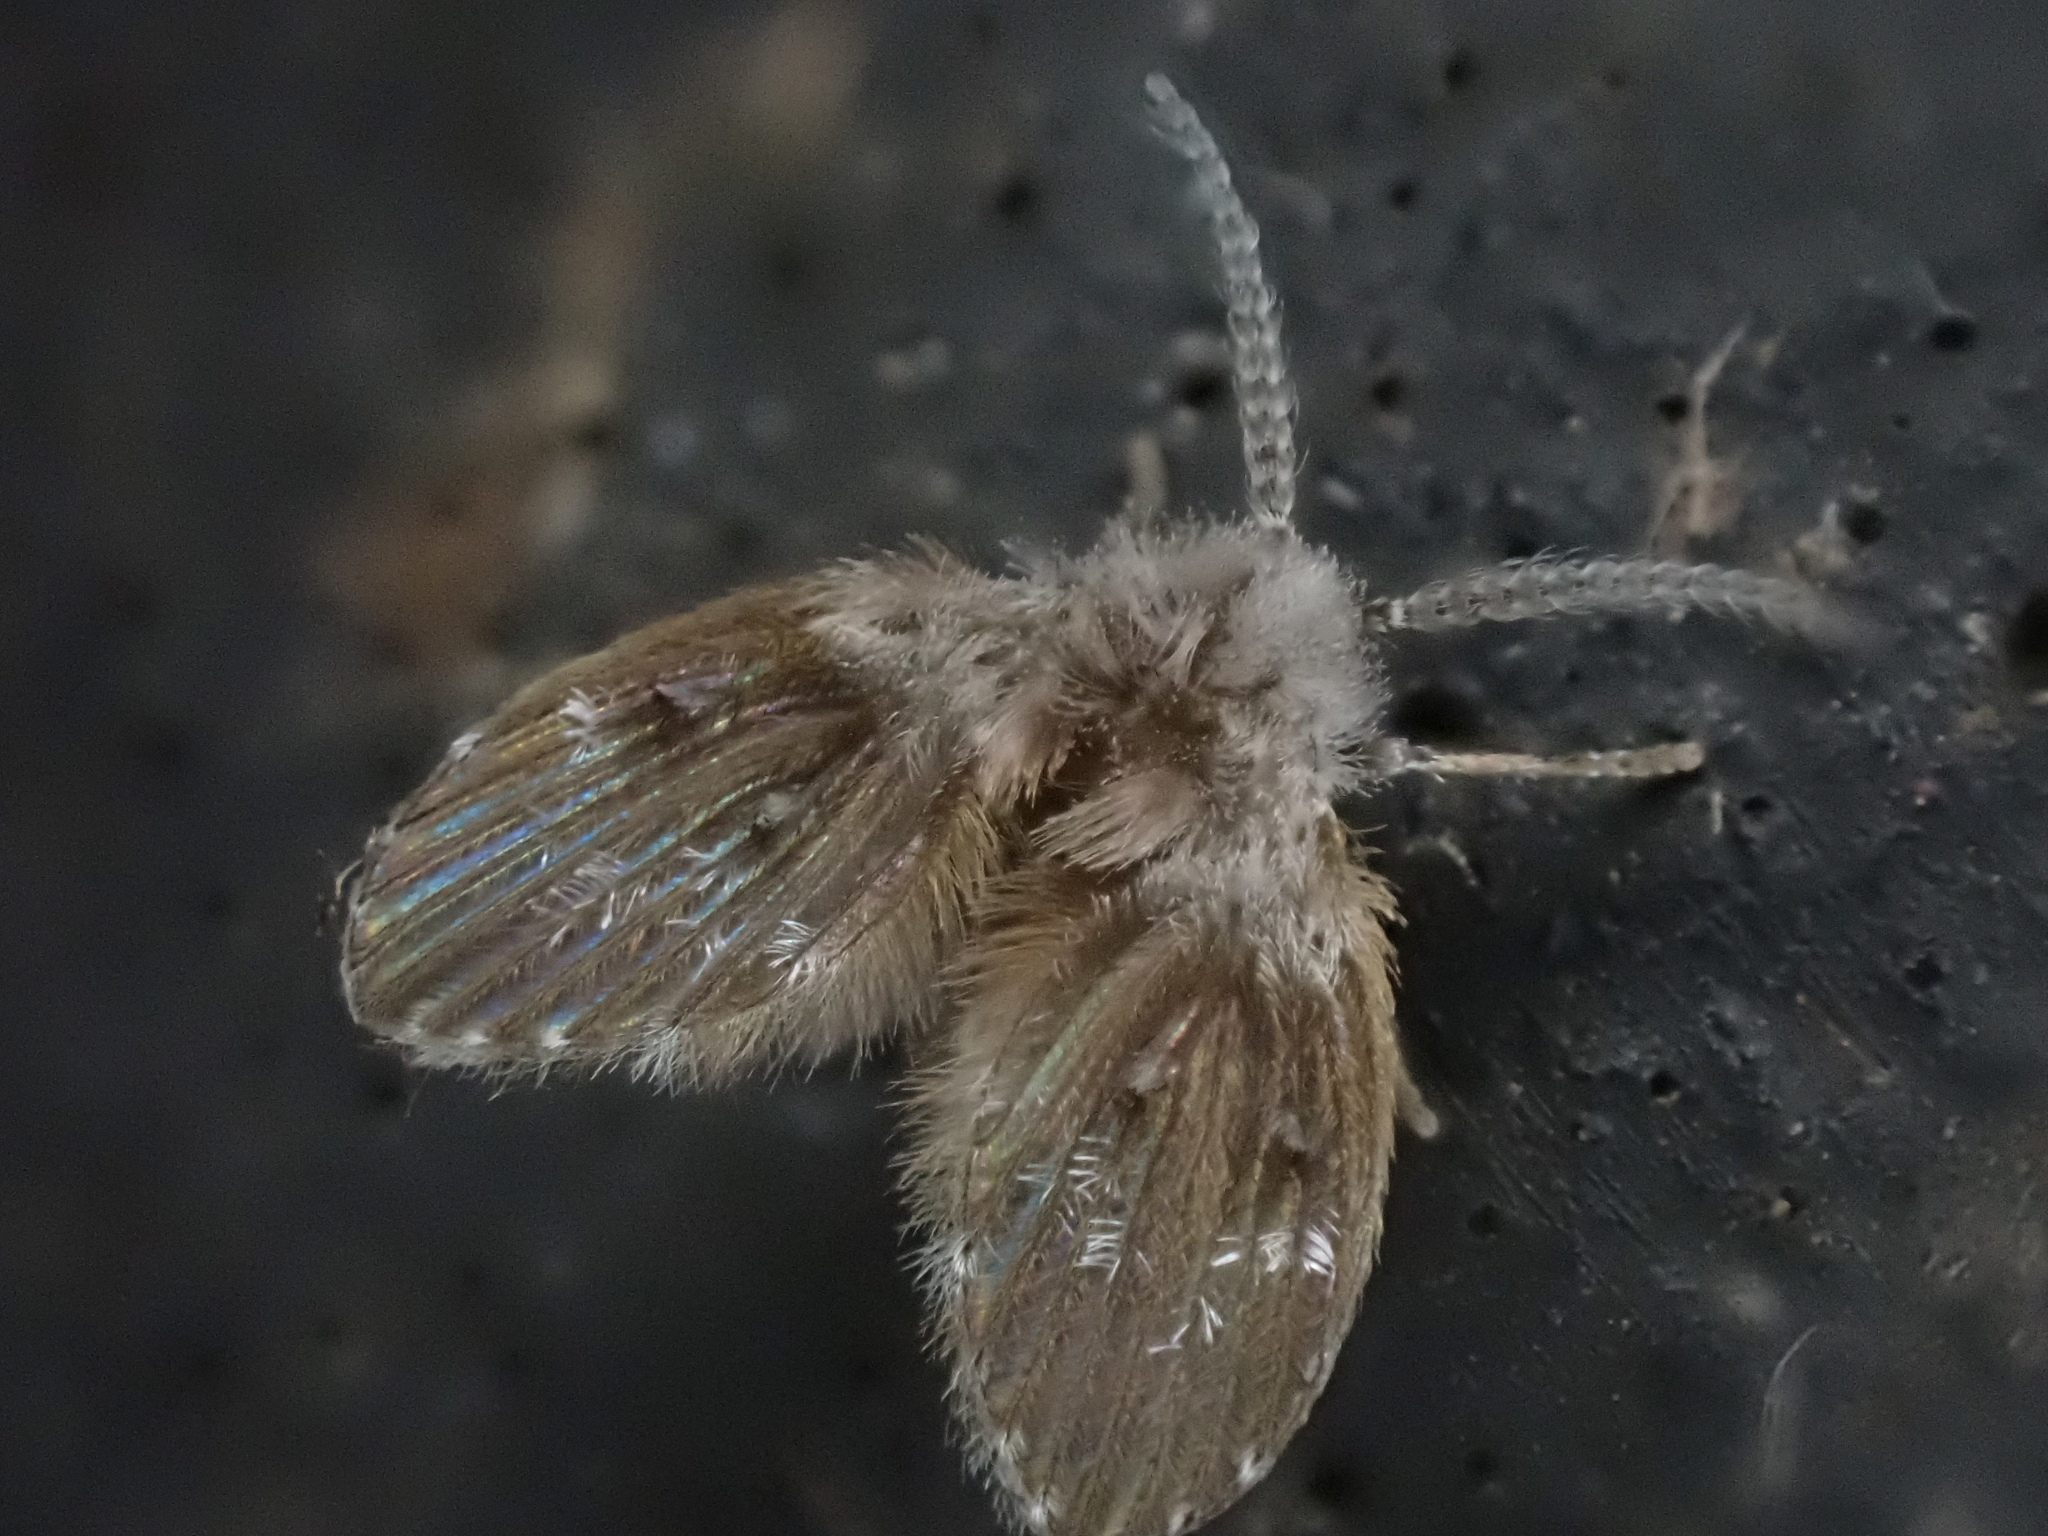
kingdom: Animalia
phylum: Arthropoda
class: Insecta
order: Diptera
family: Psychodidae
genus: Clogmia
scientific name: Clogmia albipunctatus
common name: White-spotted moth fly
